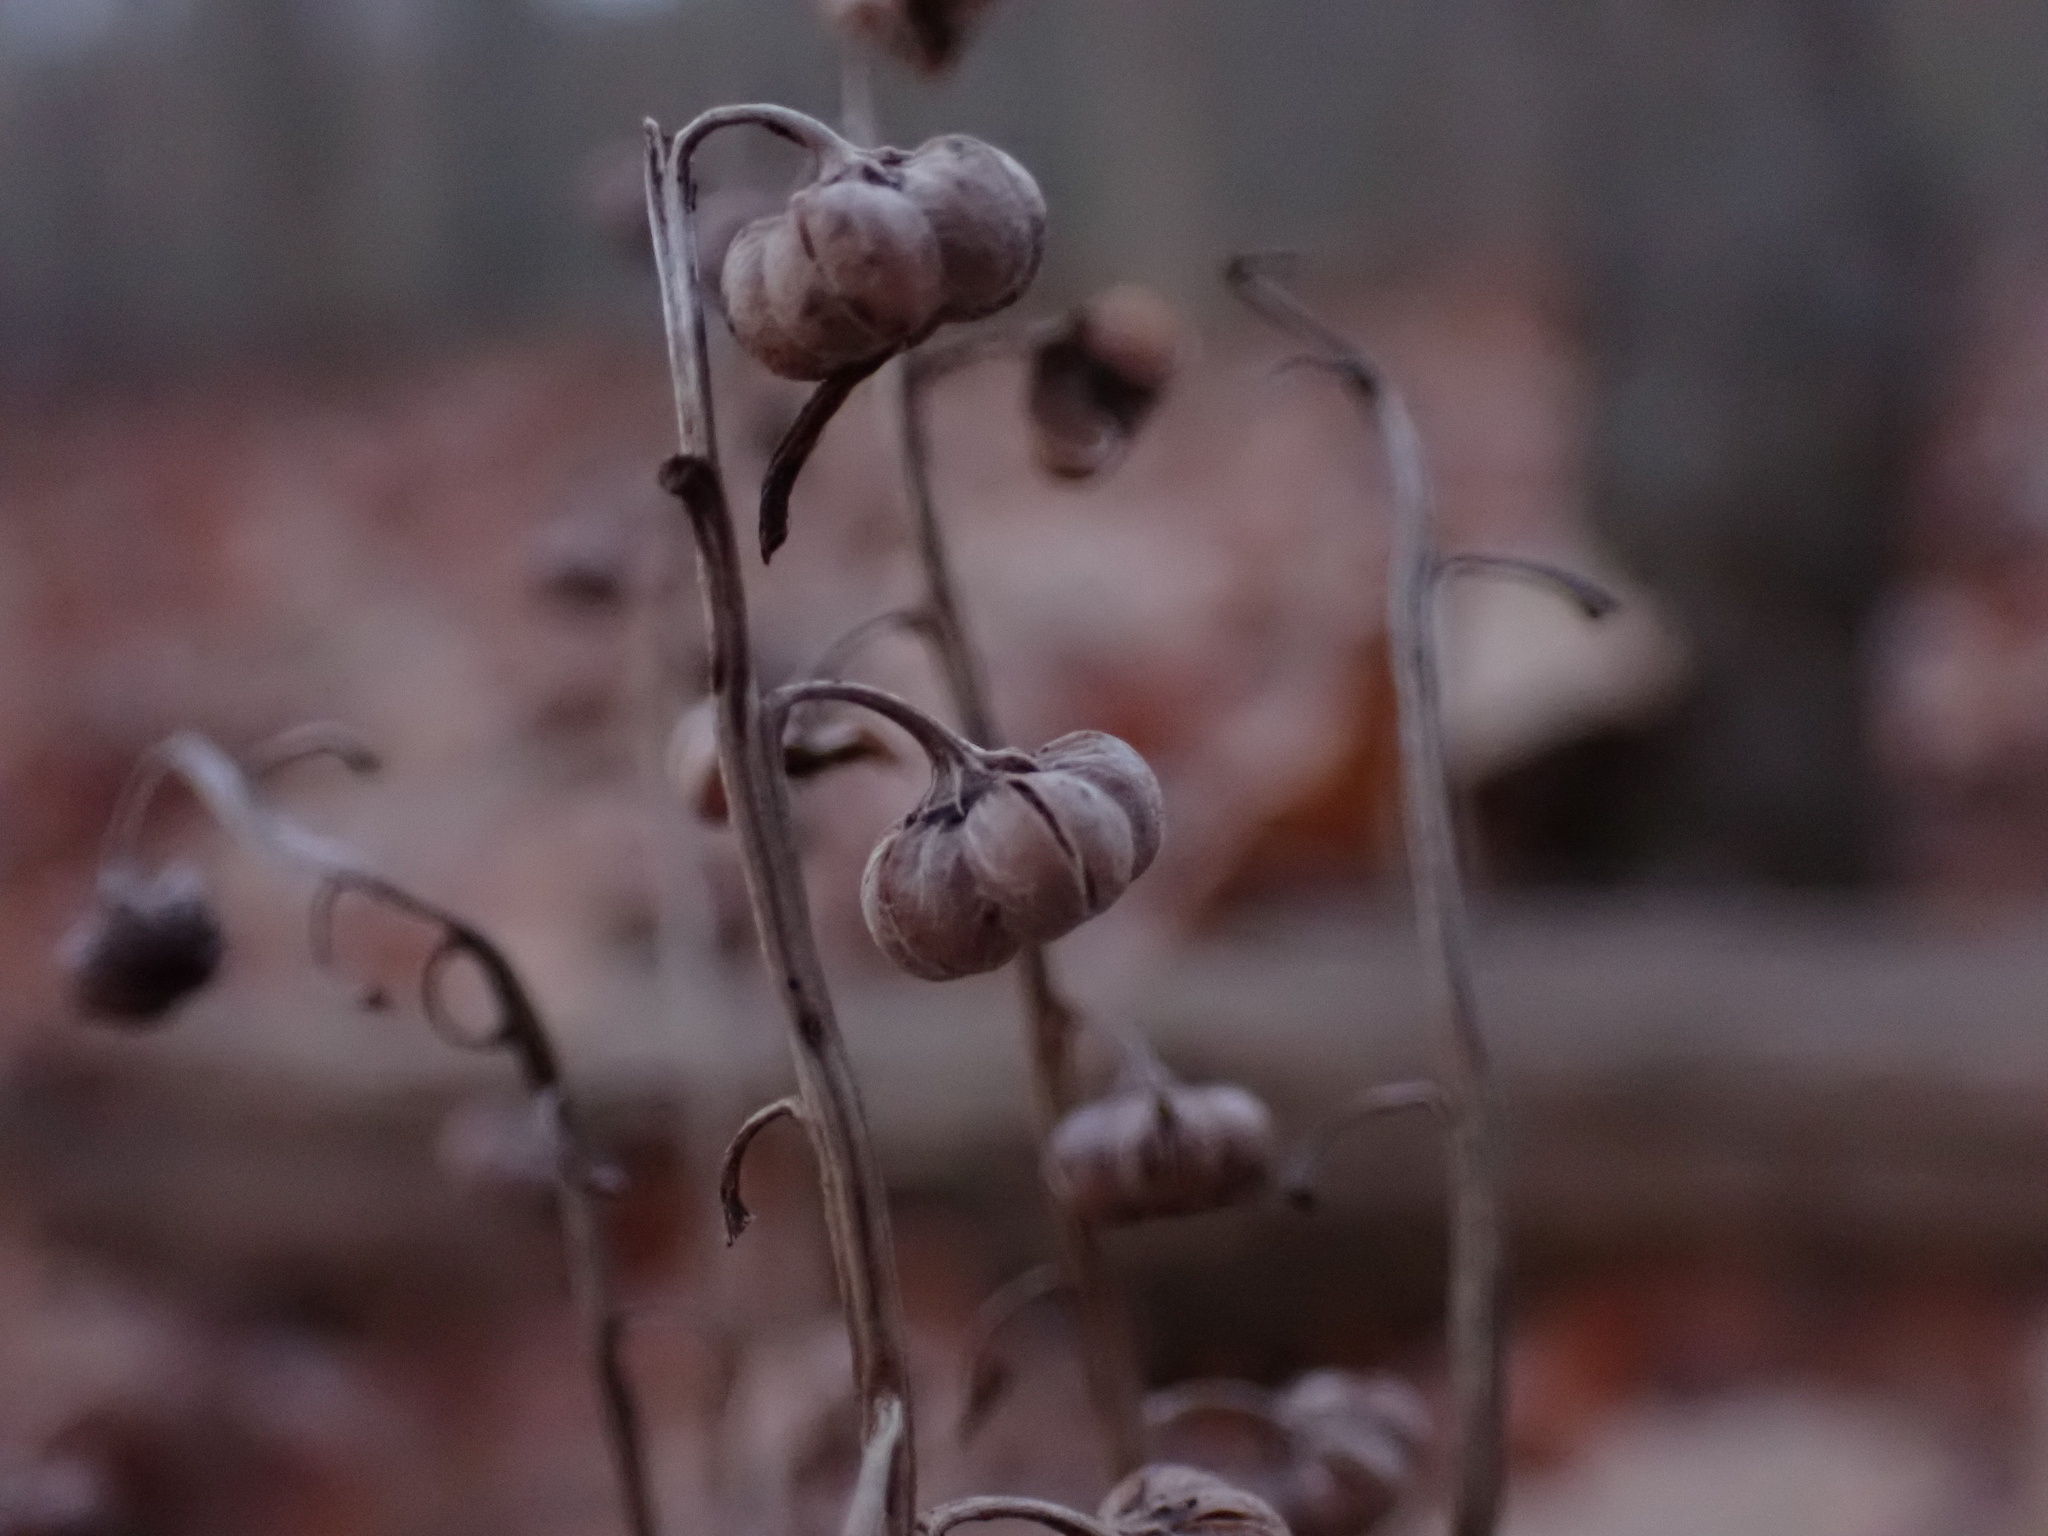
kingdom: Plantae
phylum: Tracheophyta
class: Magnoliopsida
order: Ericales
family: Ericaceae
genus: Pyrola
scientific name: Pyrola americana
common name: American wintergreen
